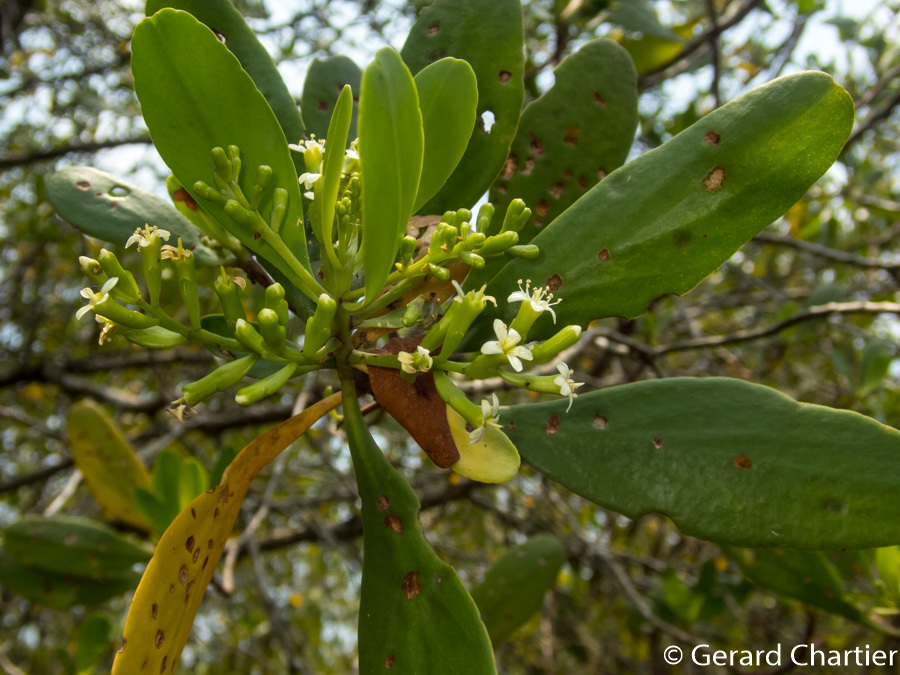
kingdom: Plantae
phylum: Tracheophyta
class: Magnoliopsida
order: Myrtales
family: Combretaceae
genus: Lumnitzera
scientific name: Lumnitzera racemosa
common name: White-flowered black mangrove
